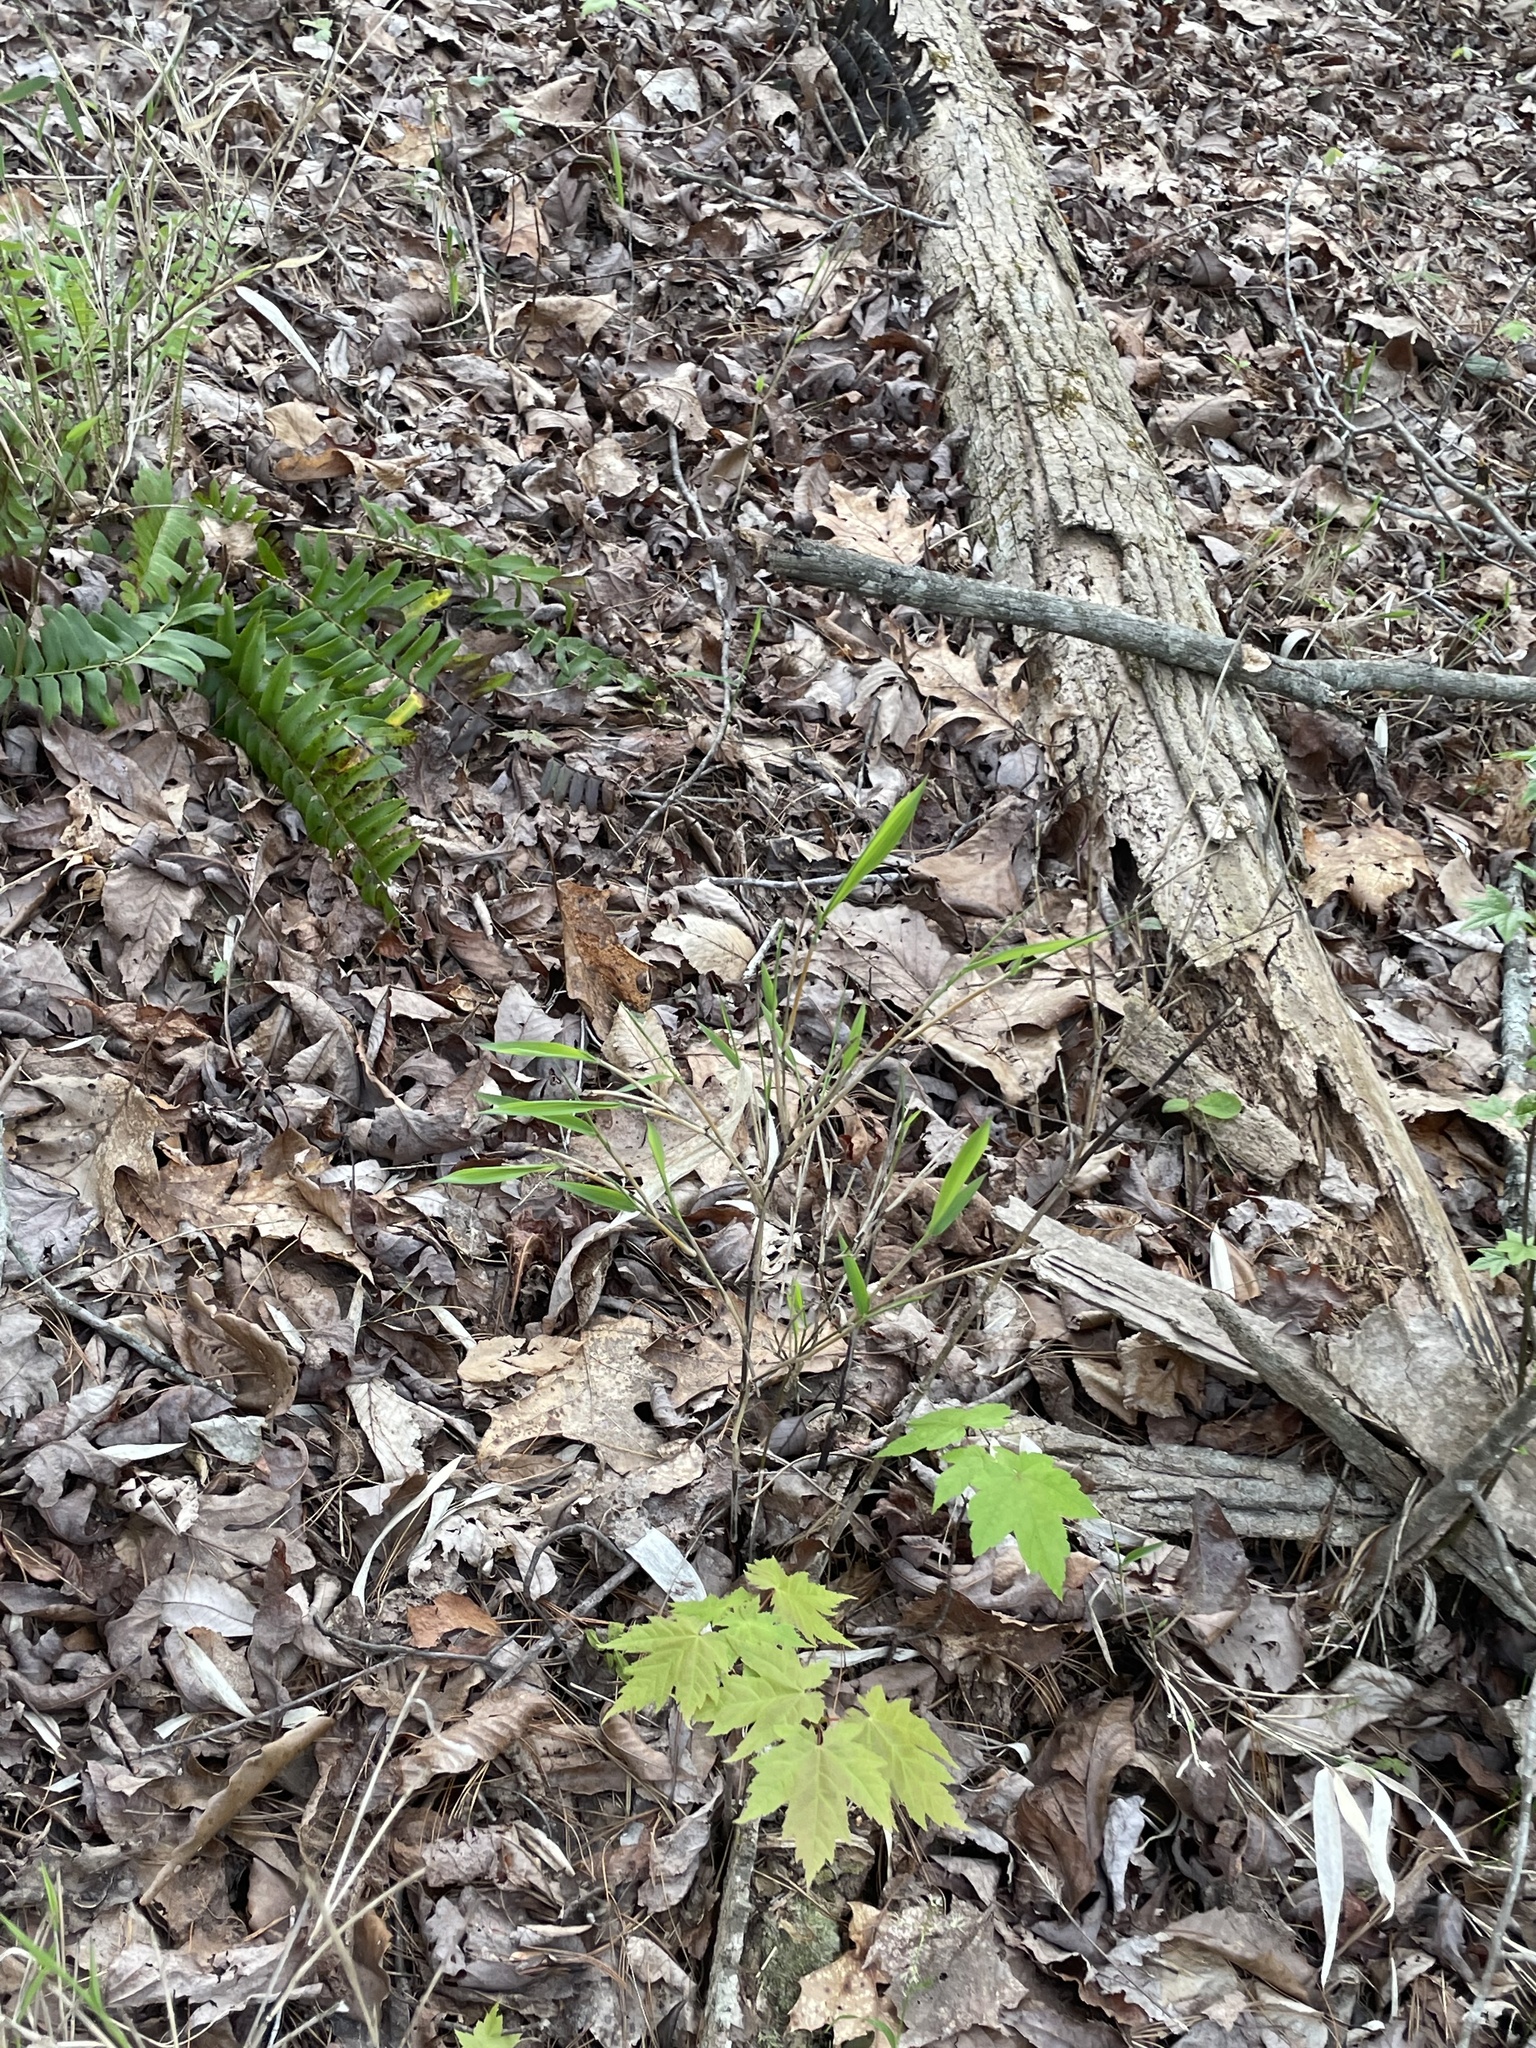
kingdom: Plantae
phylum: Tracheophyta
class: Liliopsida
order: Poales
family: Poaceae
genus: Arundinaria
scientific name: Arundinaria appalachiana
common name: Hill cane
